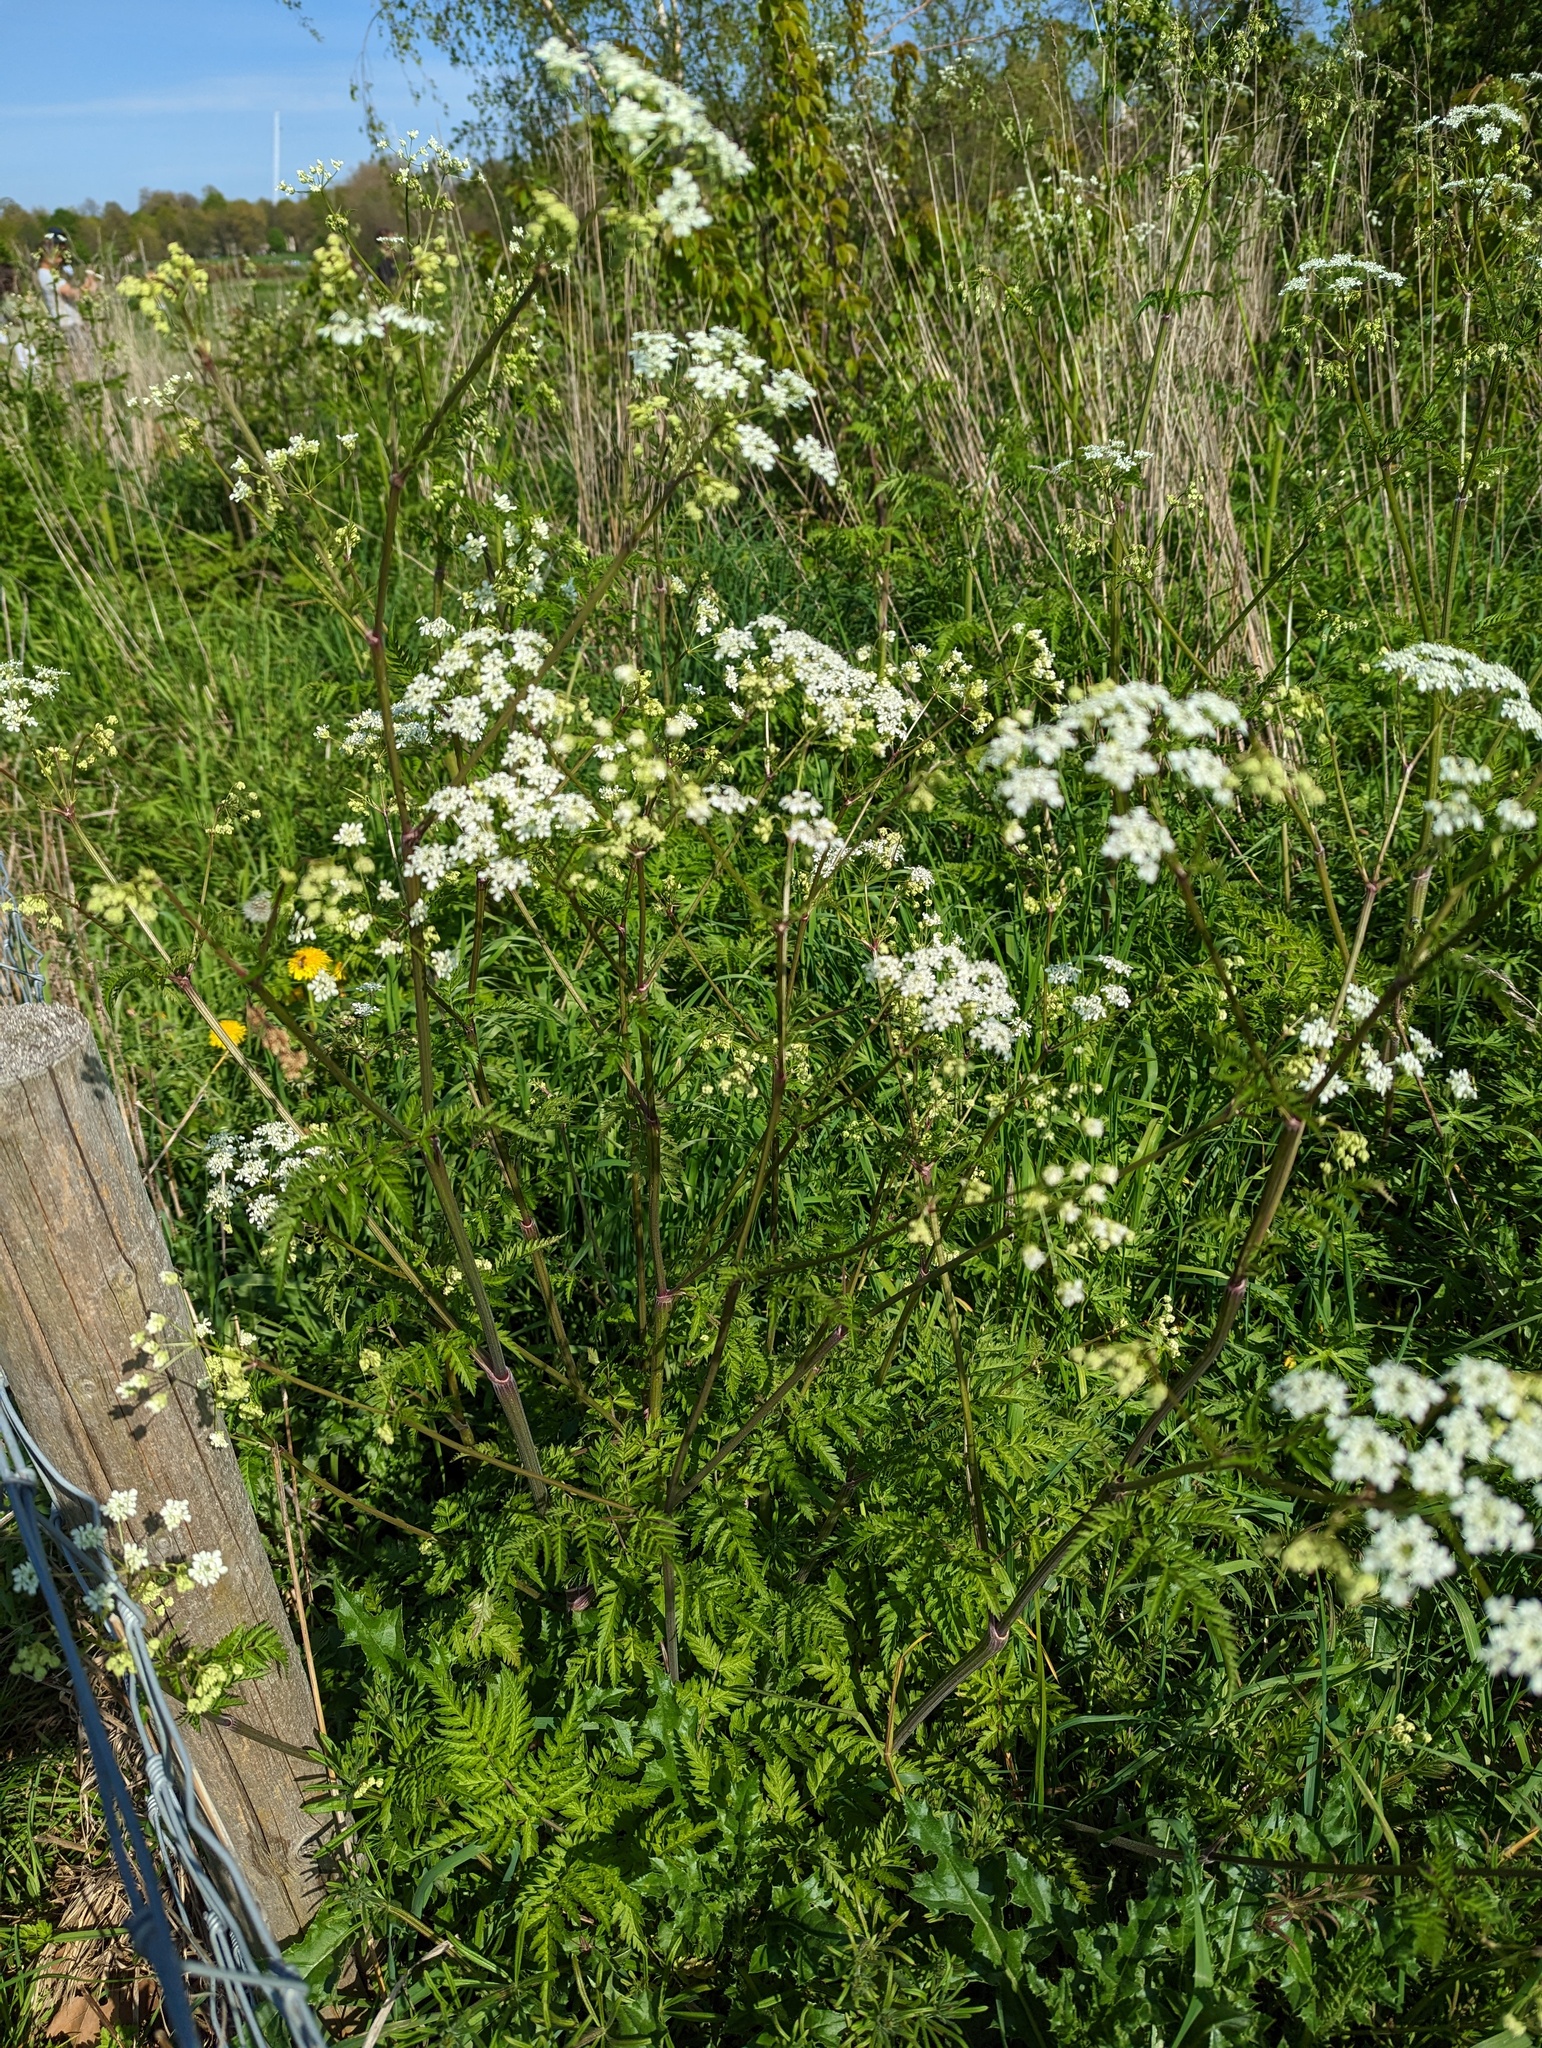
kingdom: Plantae
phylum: Tracheophyta
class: Magnoliopsida
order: Apiales
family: Apiaceae
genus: Anthriscus
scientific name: Anthriscus sylvestris
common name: Cow parsley
